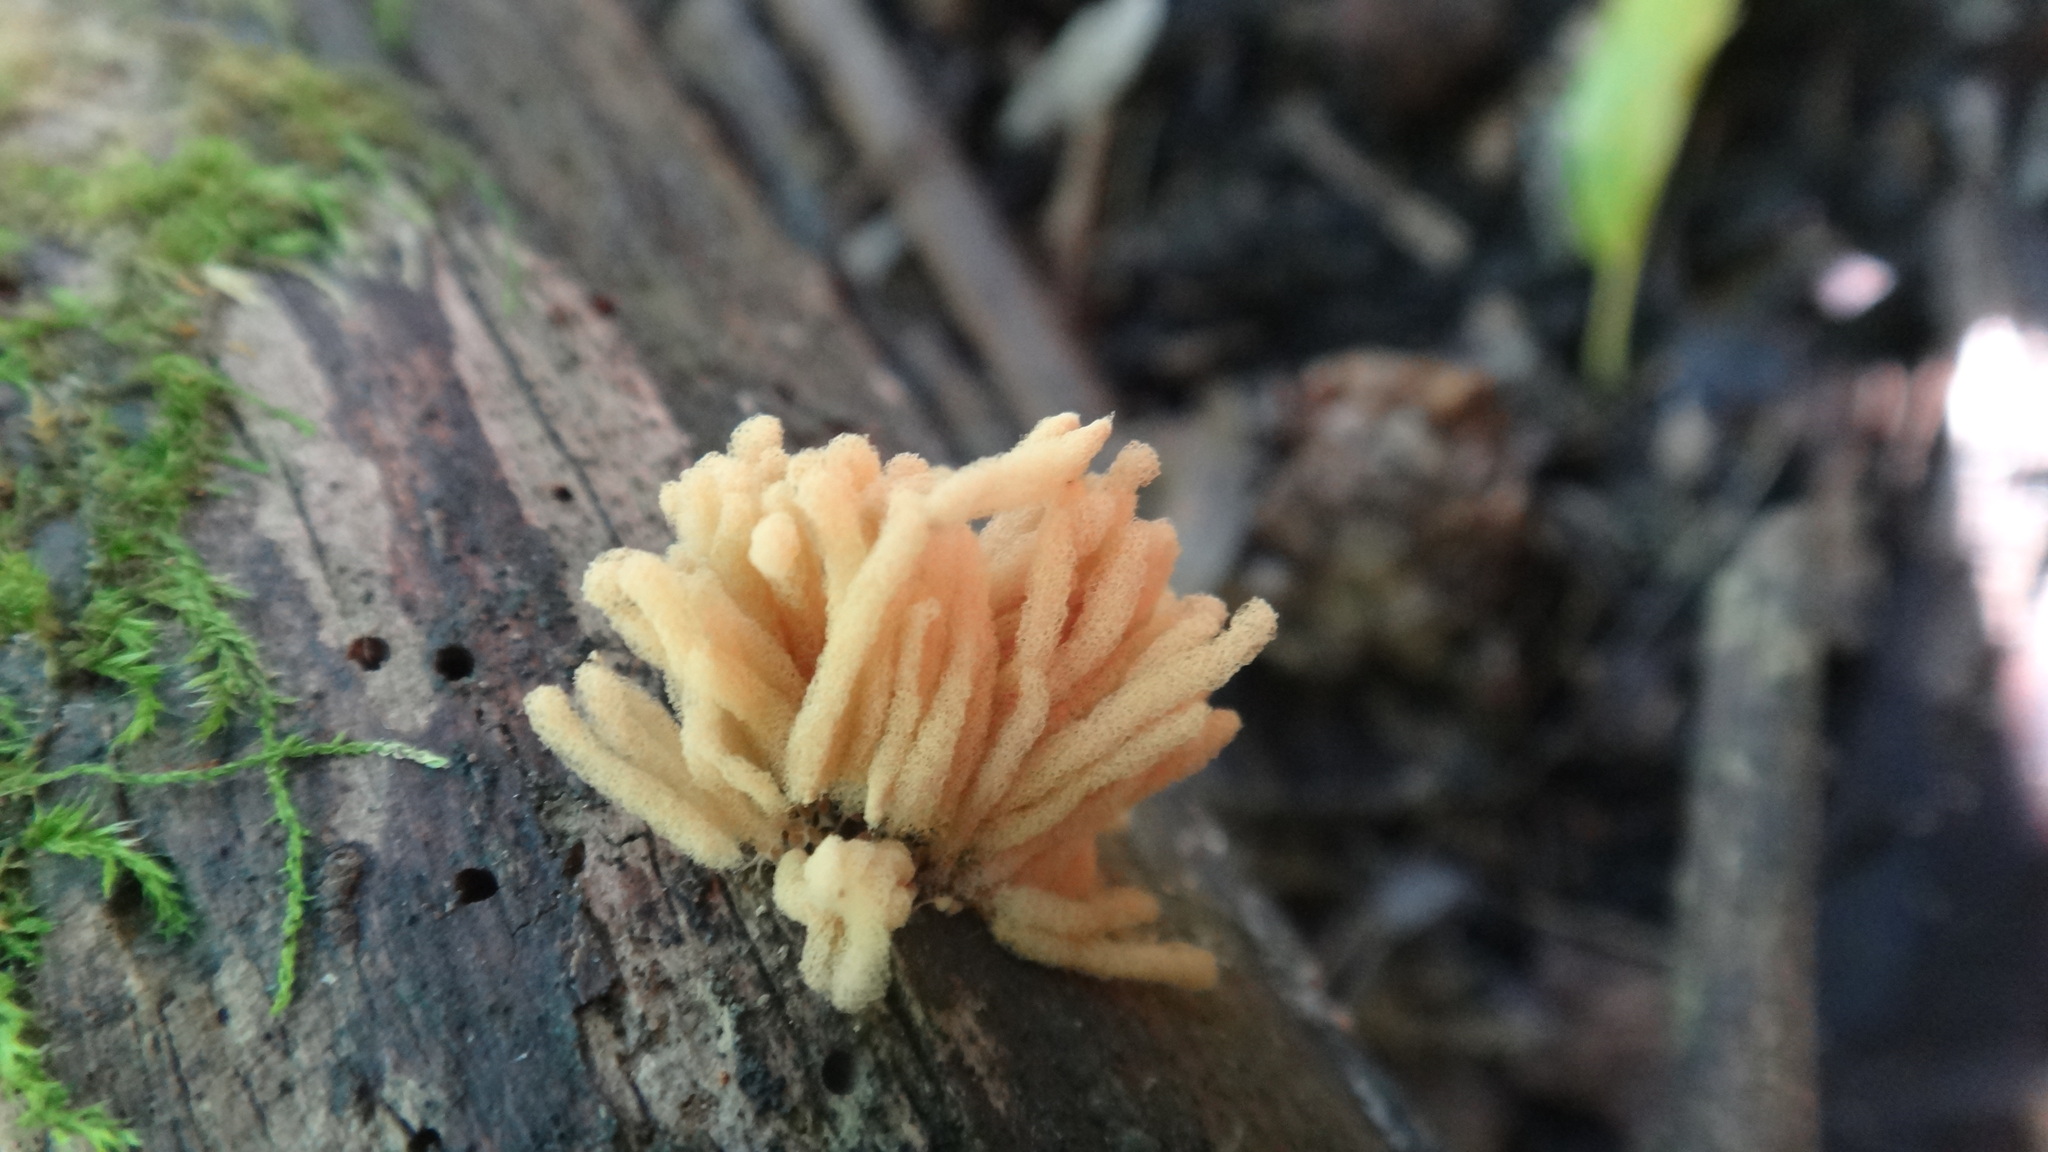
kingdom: Protozoa
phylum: Mycetozoa
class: Myxomycetes
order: Trichiales
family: Arcyriaceae
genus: Arcyria
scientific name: Arcyria obvelata
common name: Yellow carnival candy slime
